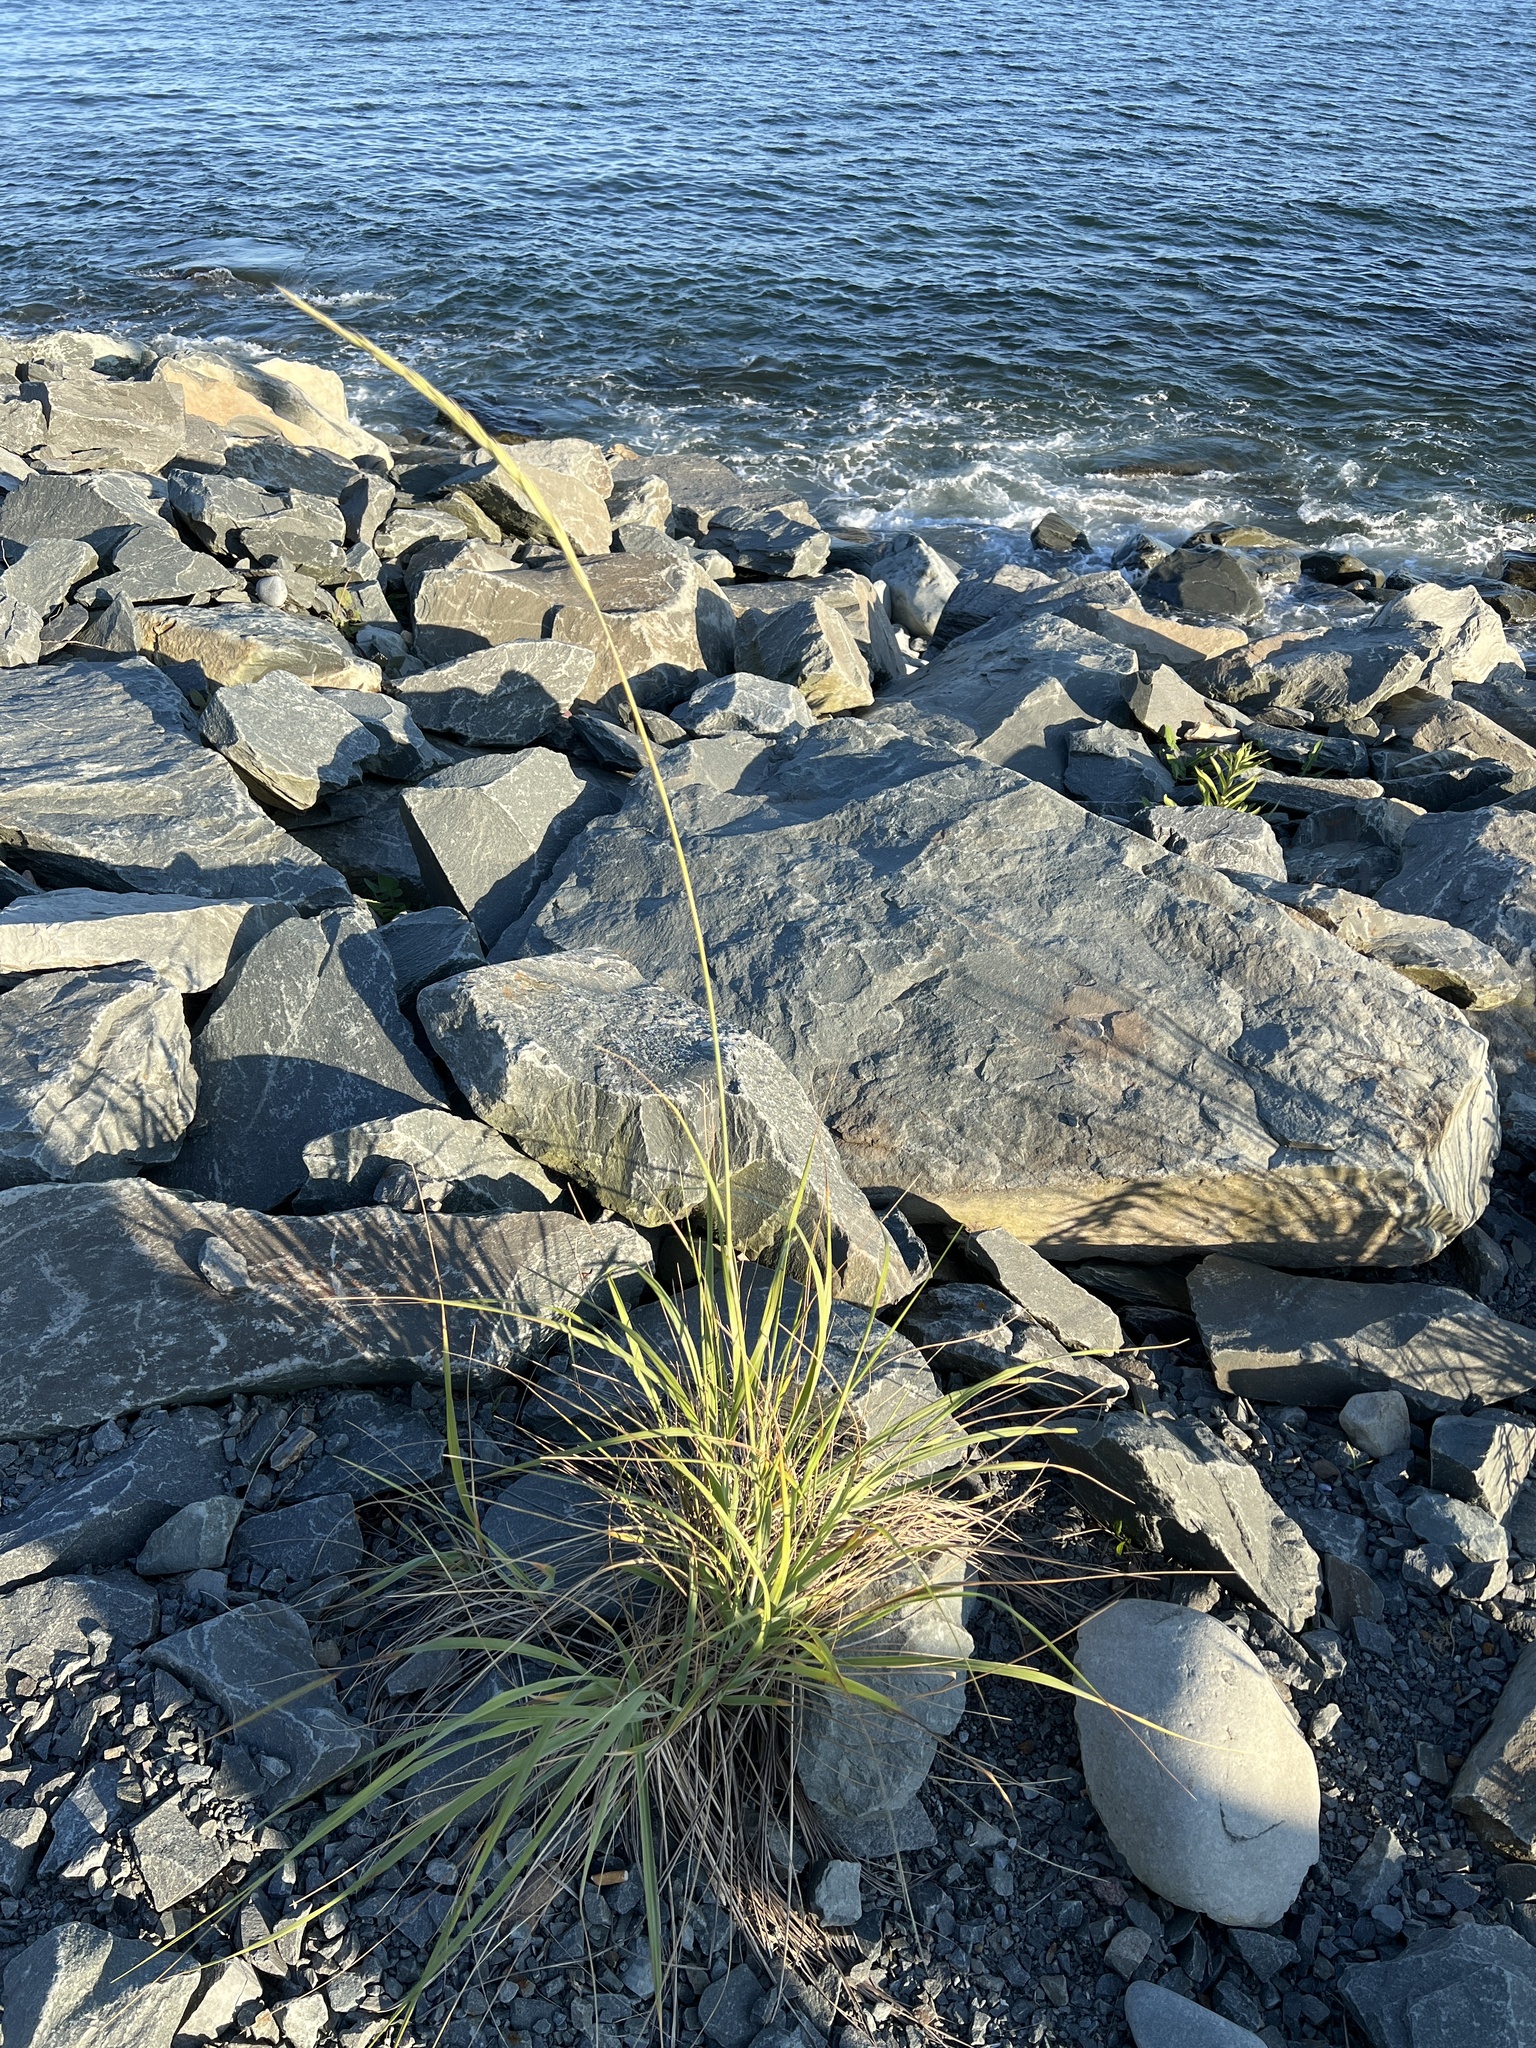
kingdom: Plantae
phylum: Tracheophyta
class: Liliopsida
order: Poales
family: Poaceae
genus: Leymus
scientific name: Leymus mollis
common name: American dune grass
